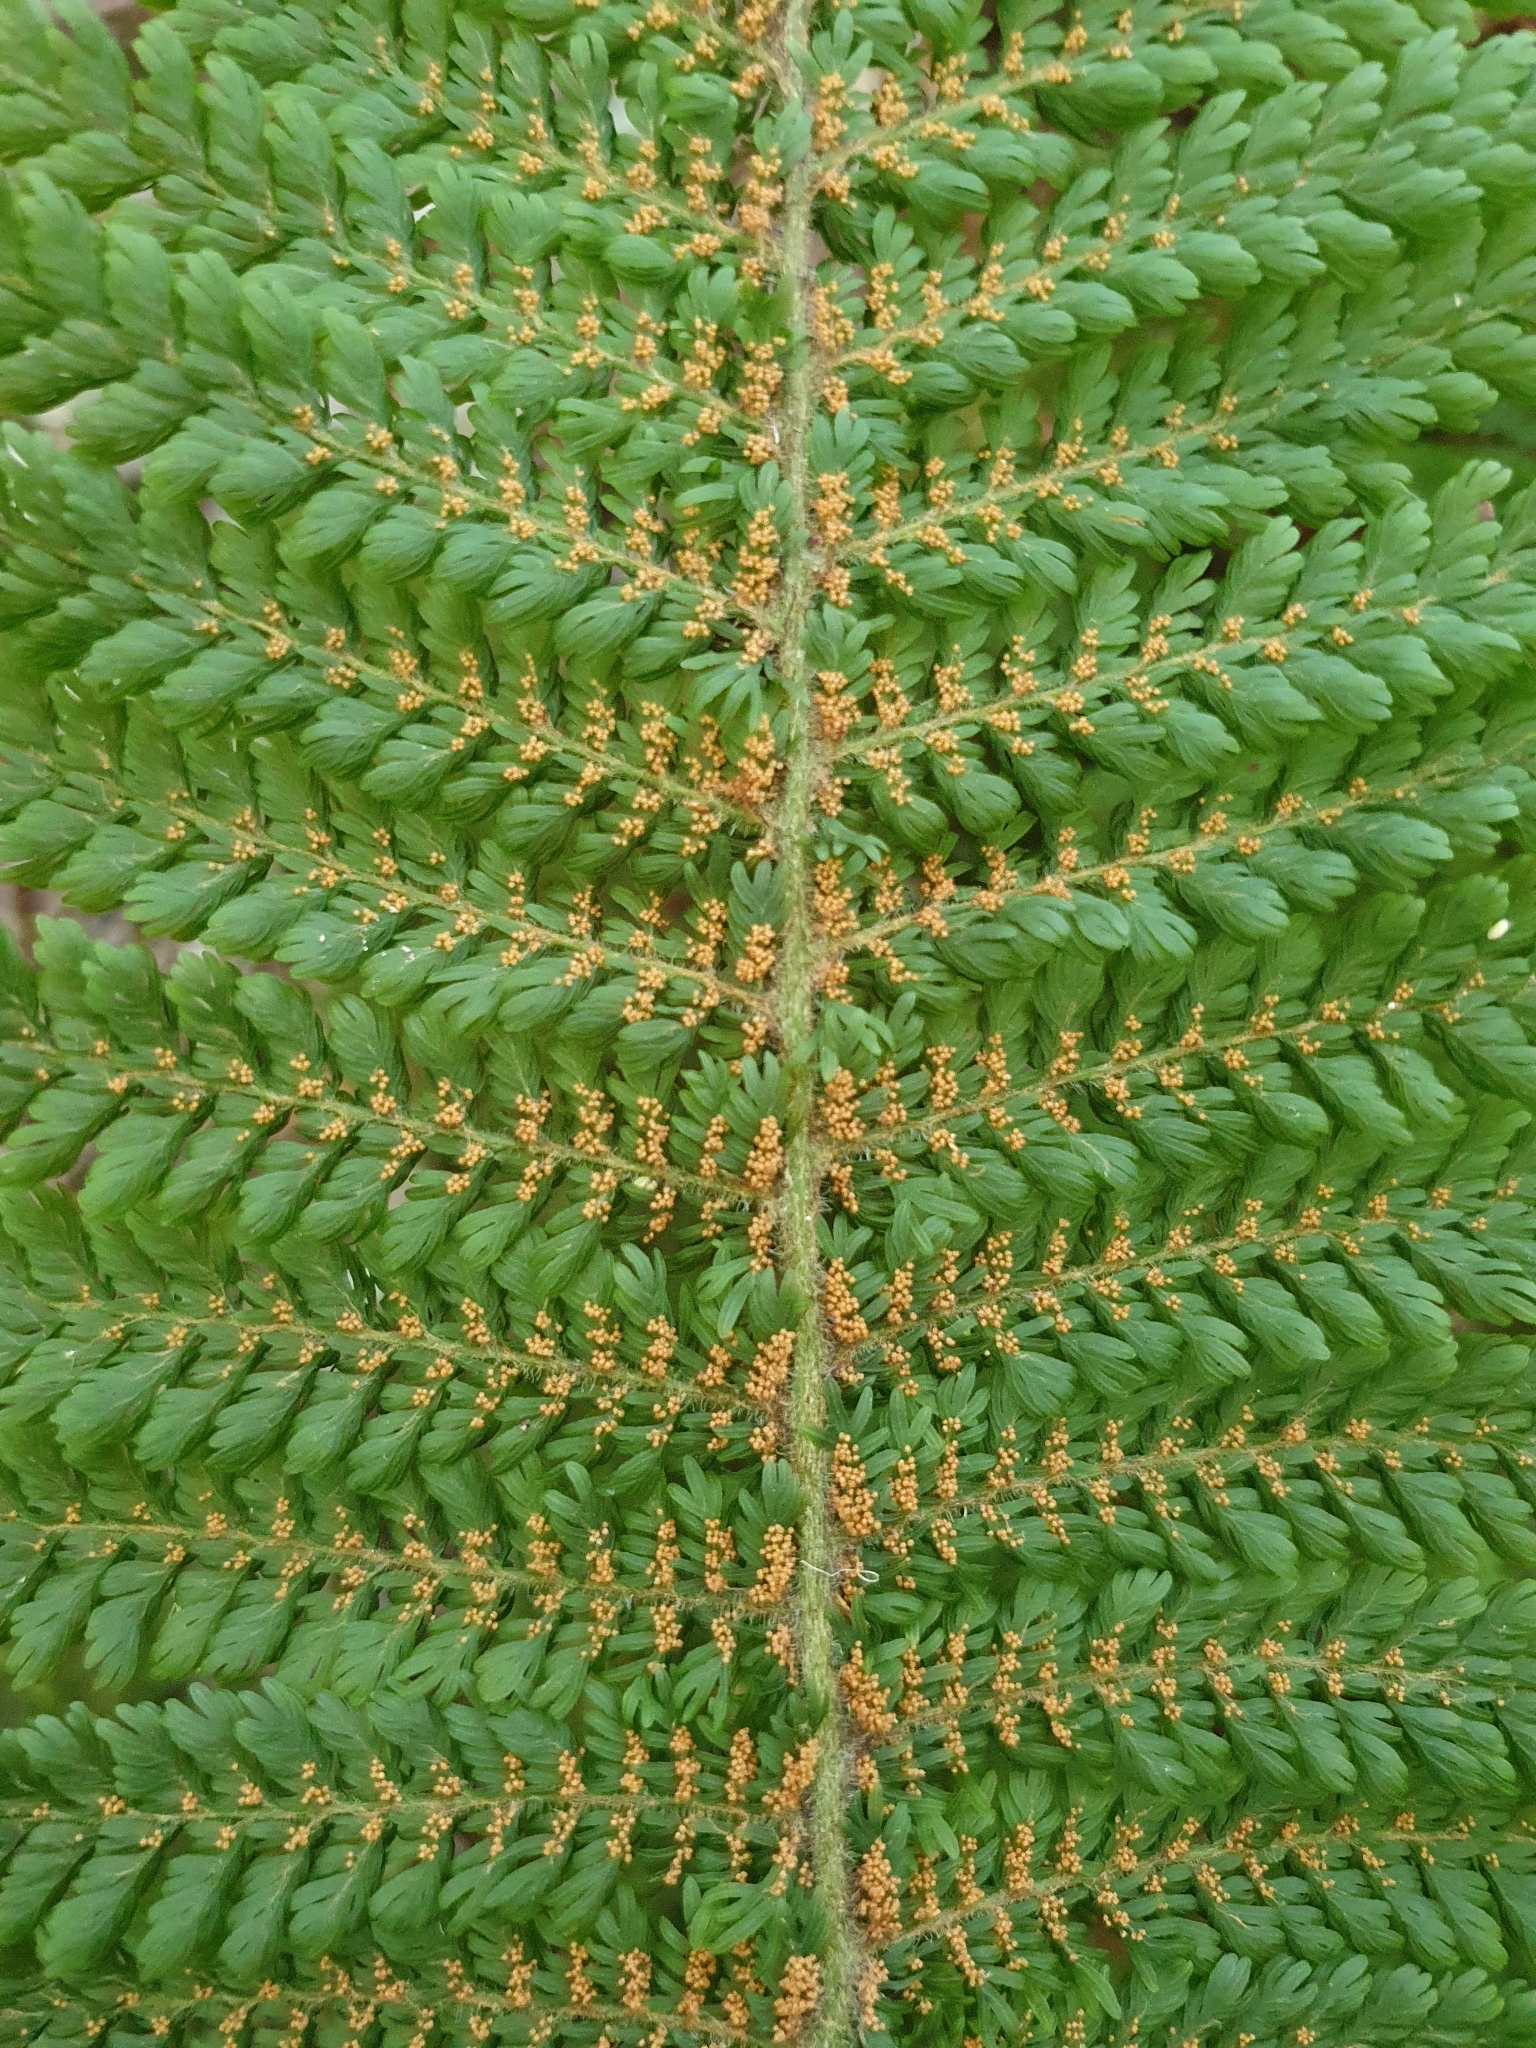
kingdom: Plantae
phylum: Tracheophyta
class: Polypodiopsida
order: Osmundales
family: Osmundaceae
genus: Leptopteris
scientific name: Leptopteris superba
